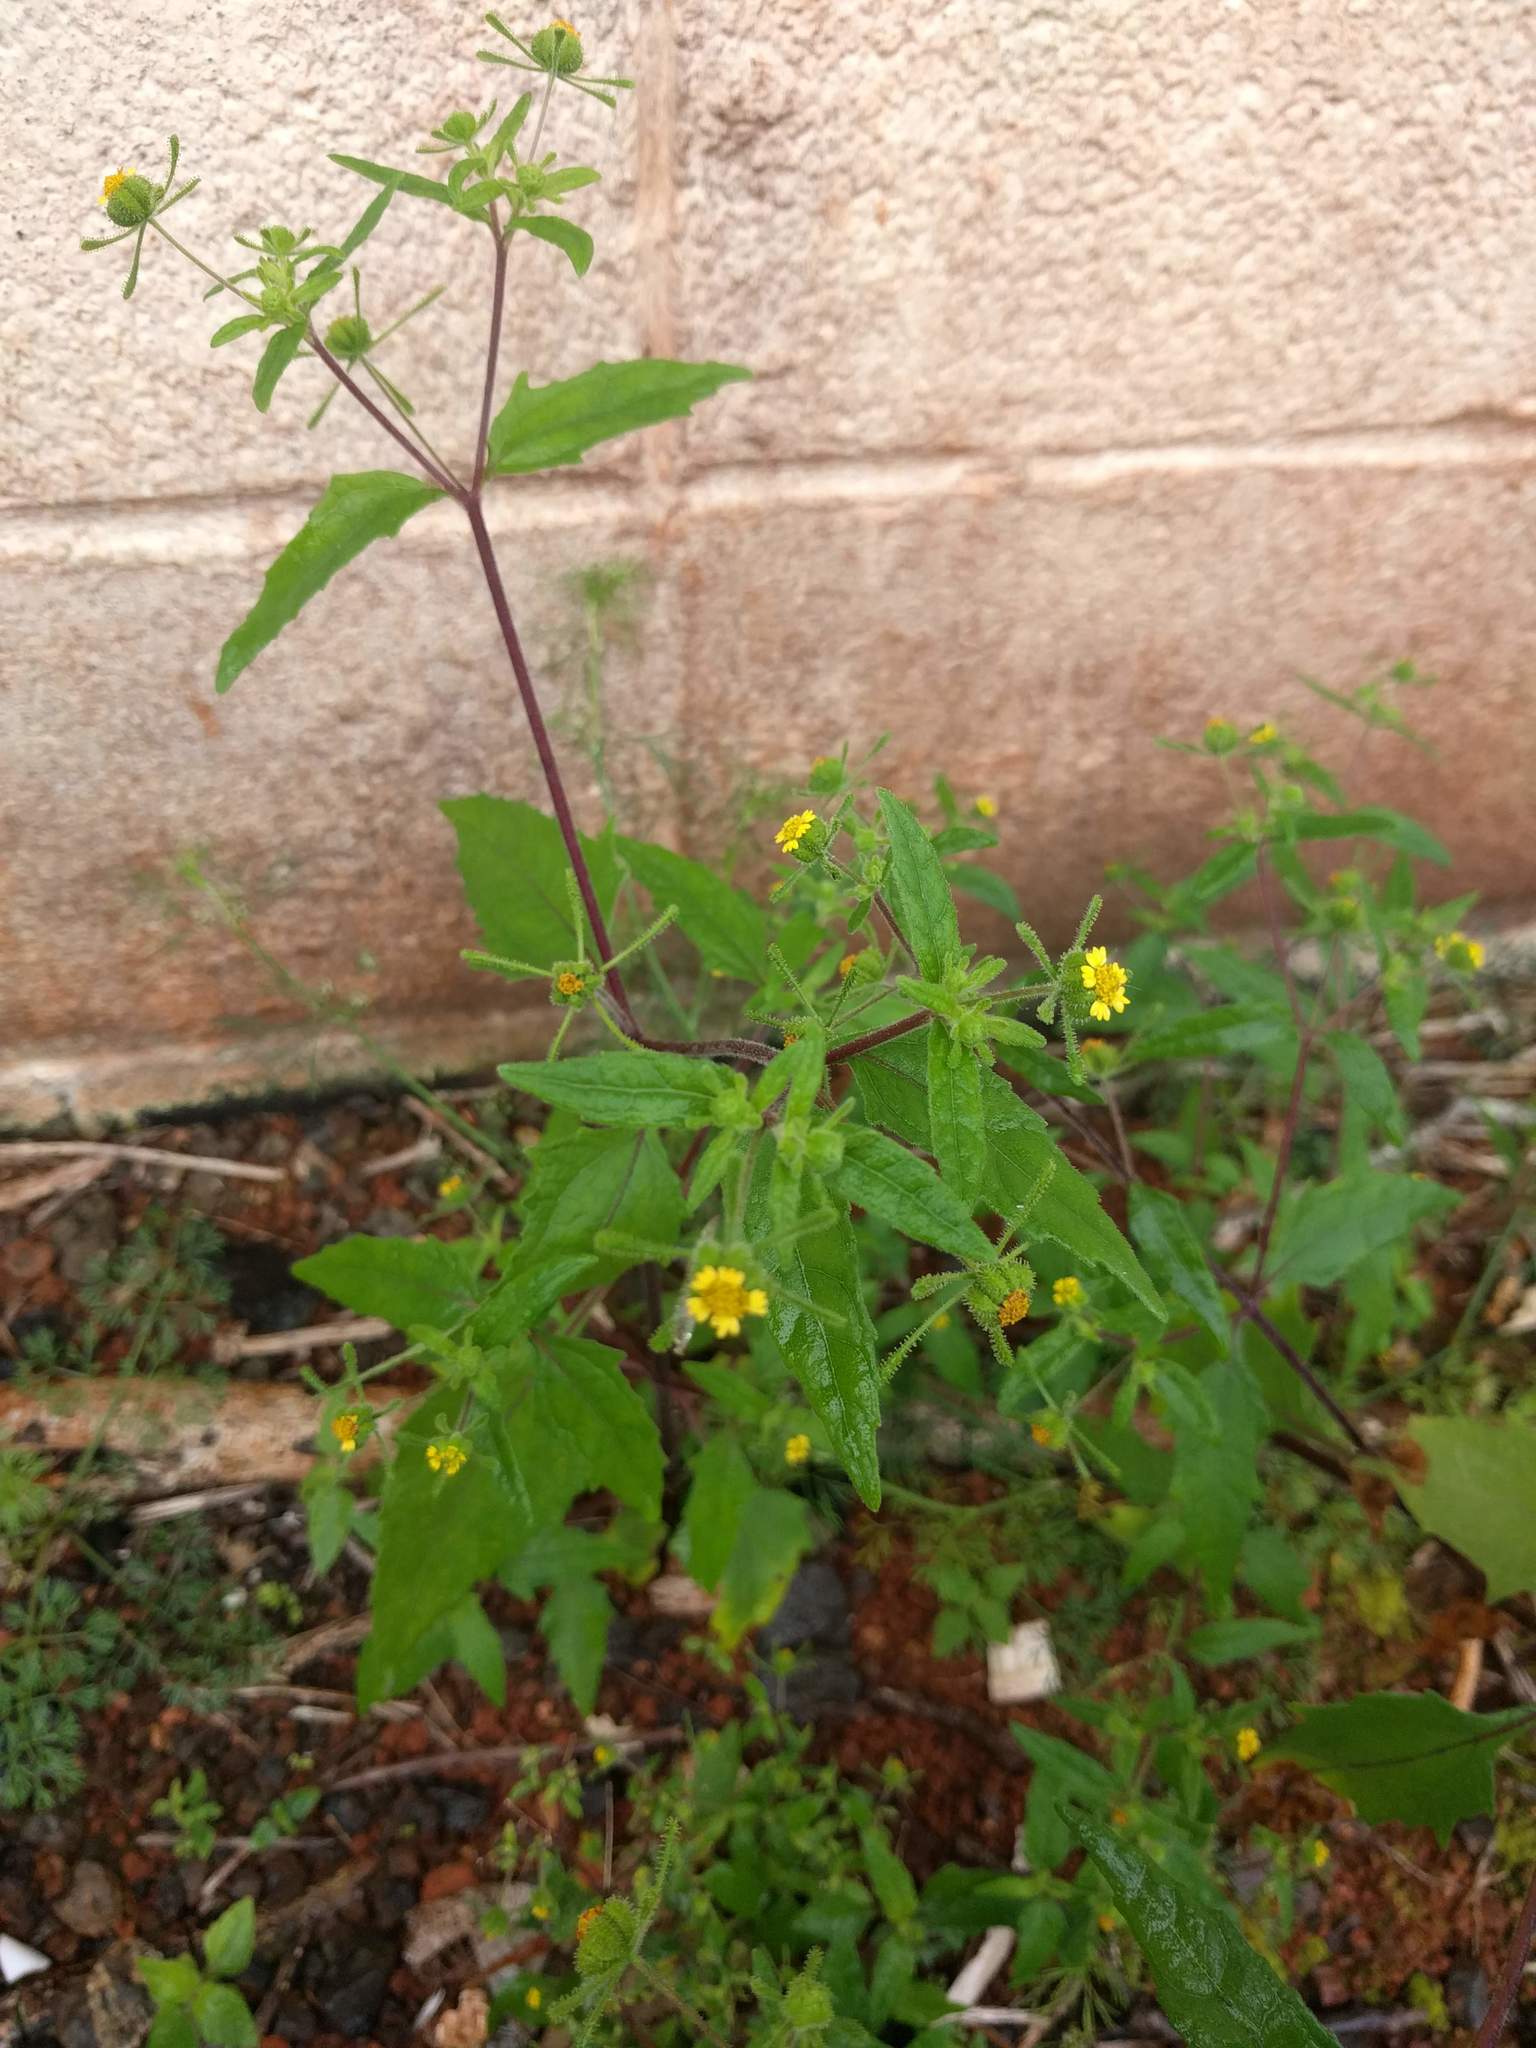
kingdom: Plantae
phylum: Tracheophyta
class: Magnoliopsida
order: Asterales
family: Asteraceae
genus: Sigesbeckia
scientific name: Sigesbeckia orientalis
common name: Eastern st paul's-wort
